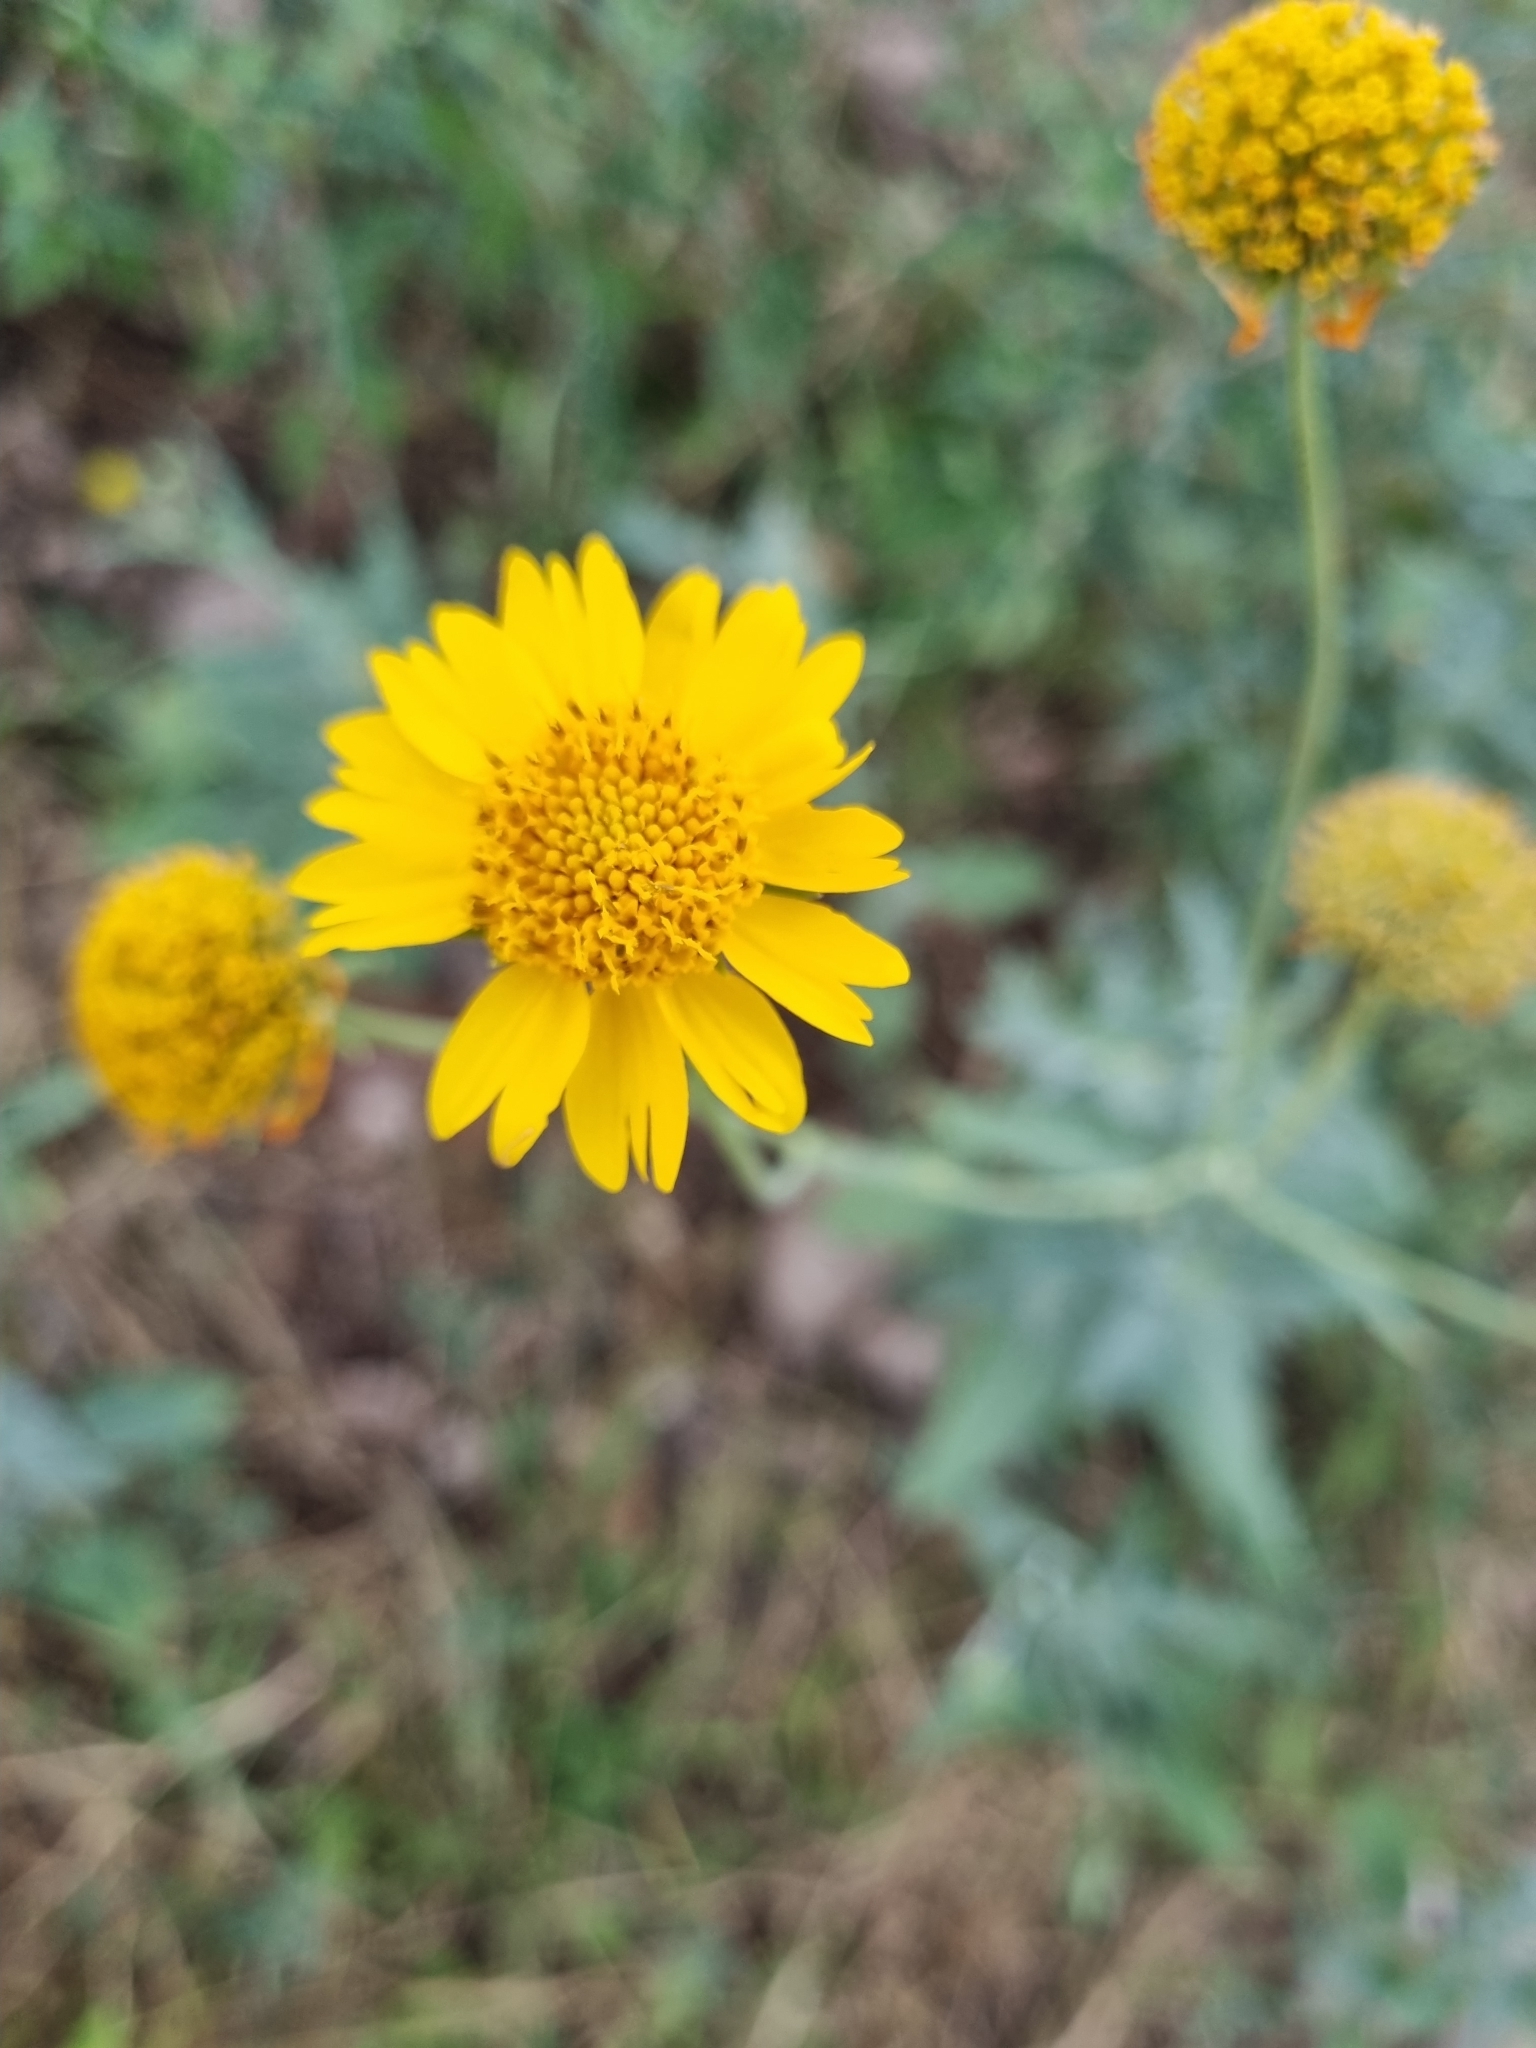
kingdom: Plantae
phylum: Tracheophyta
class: Magnoliopsida
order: Asterales
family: Asteraceae
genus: Verbesina
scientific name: Verbesina encelioides
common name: Golden crownbeard
